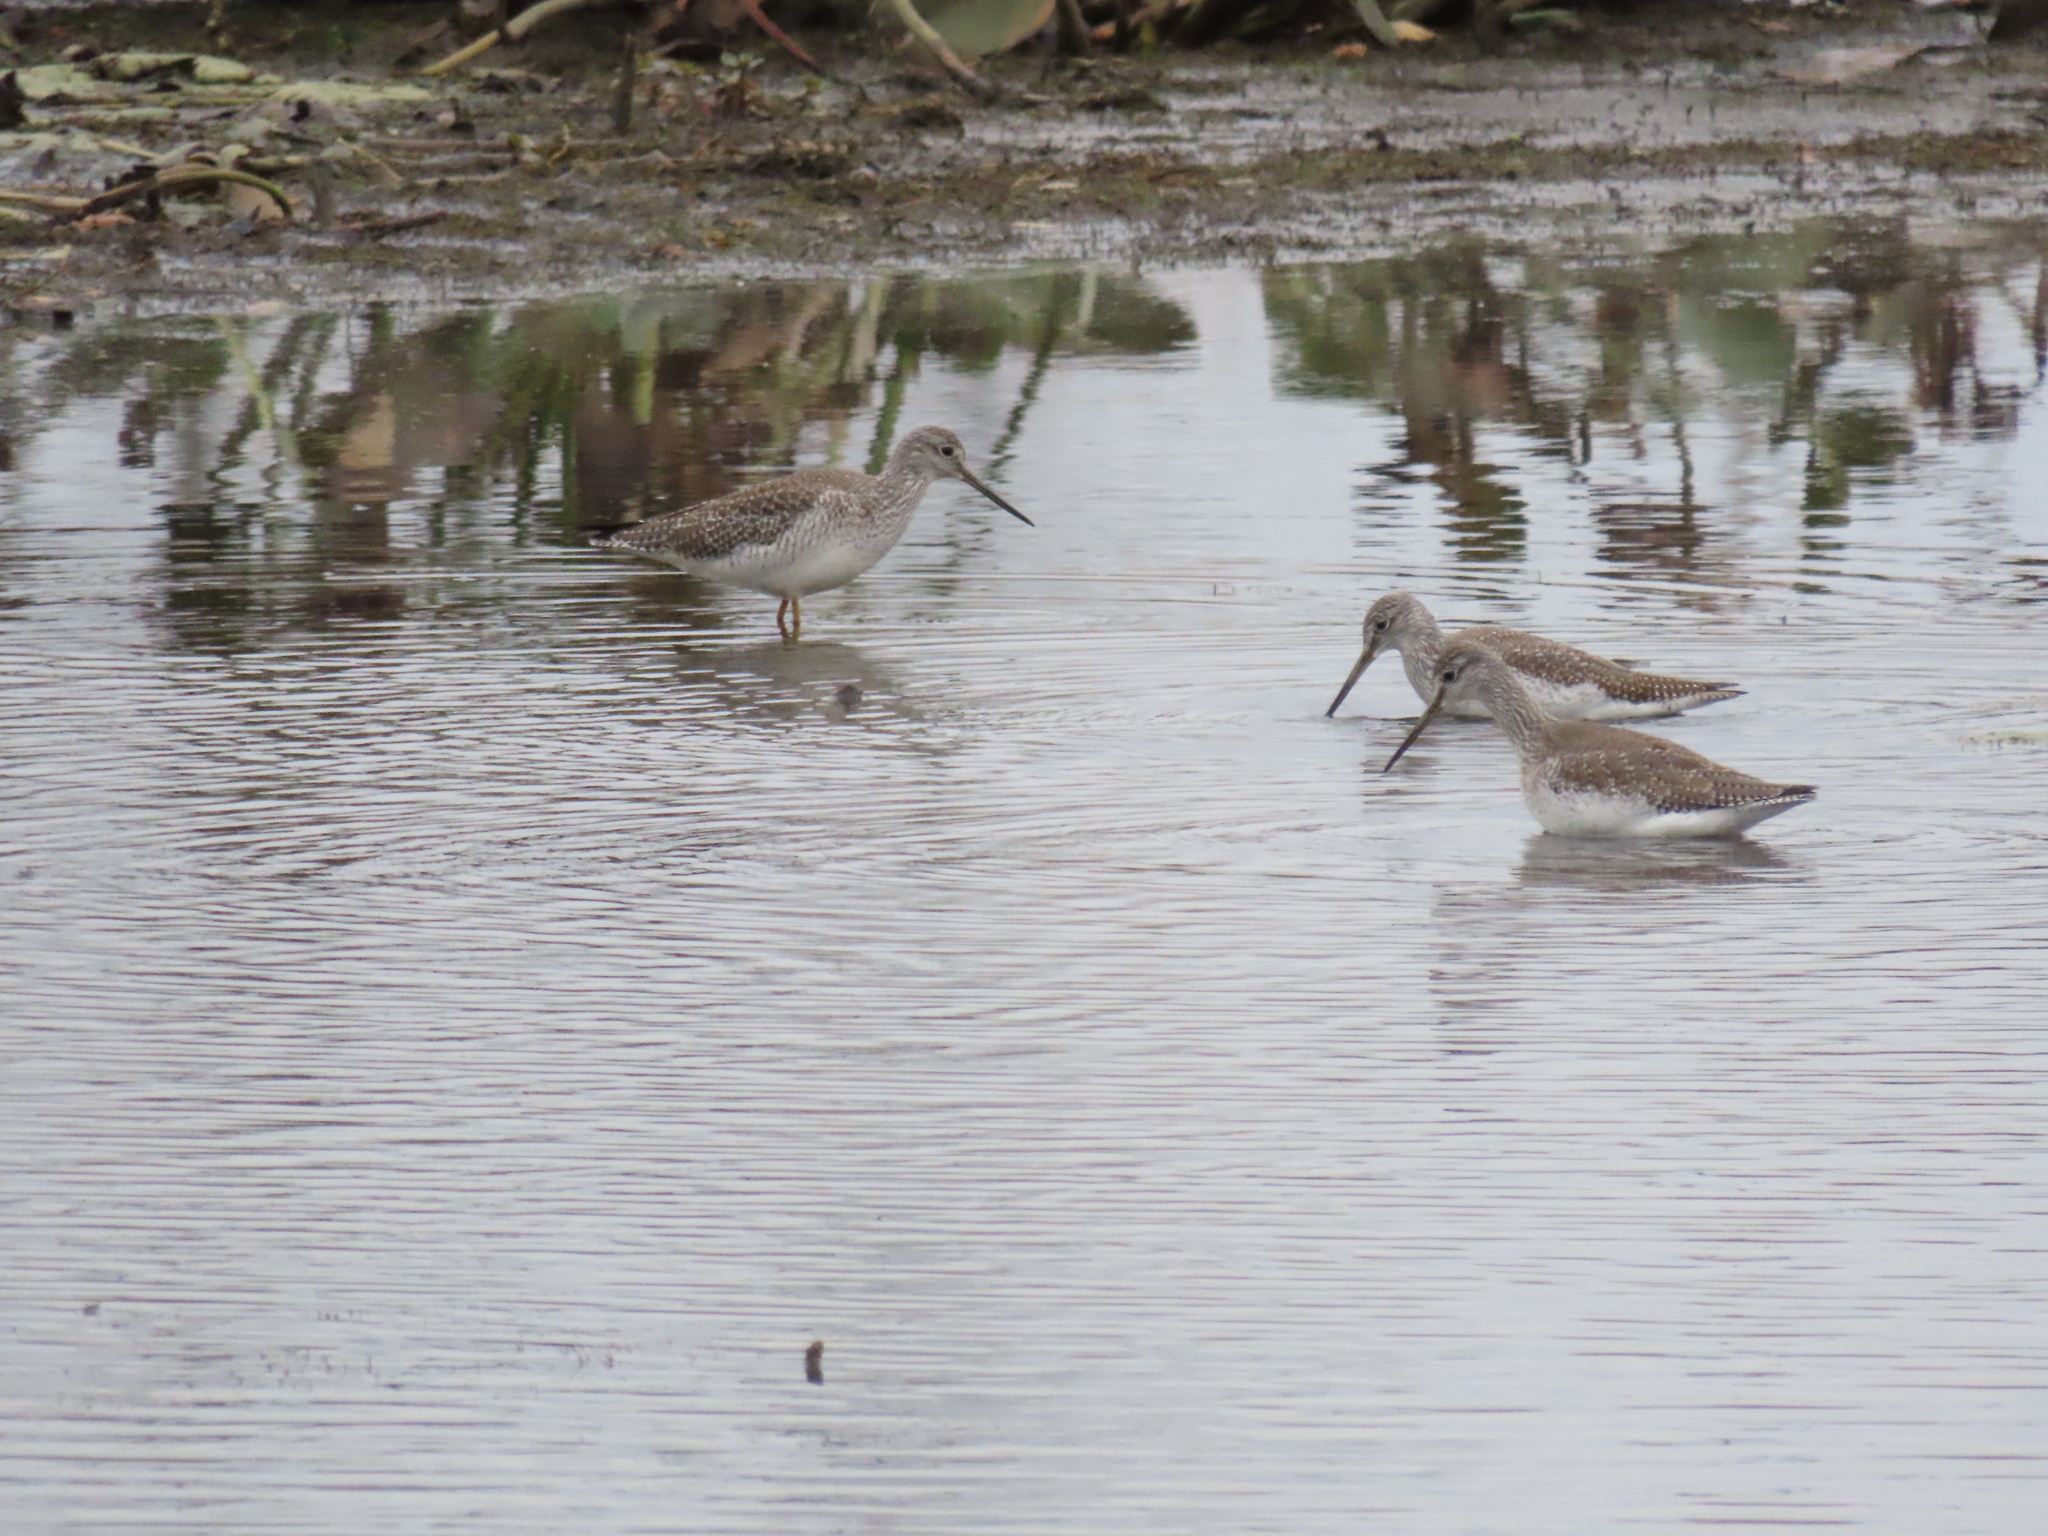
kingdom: Animalia
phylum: Chordata
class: Aves
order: Charadriiformes
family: Scolopacidae
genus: Tringa
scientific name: Tringa melanoleuca
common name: Greater yellowlegs
